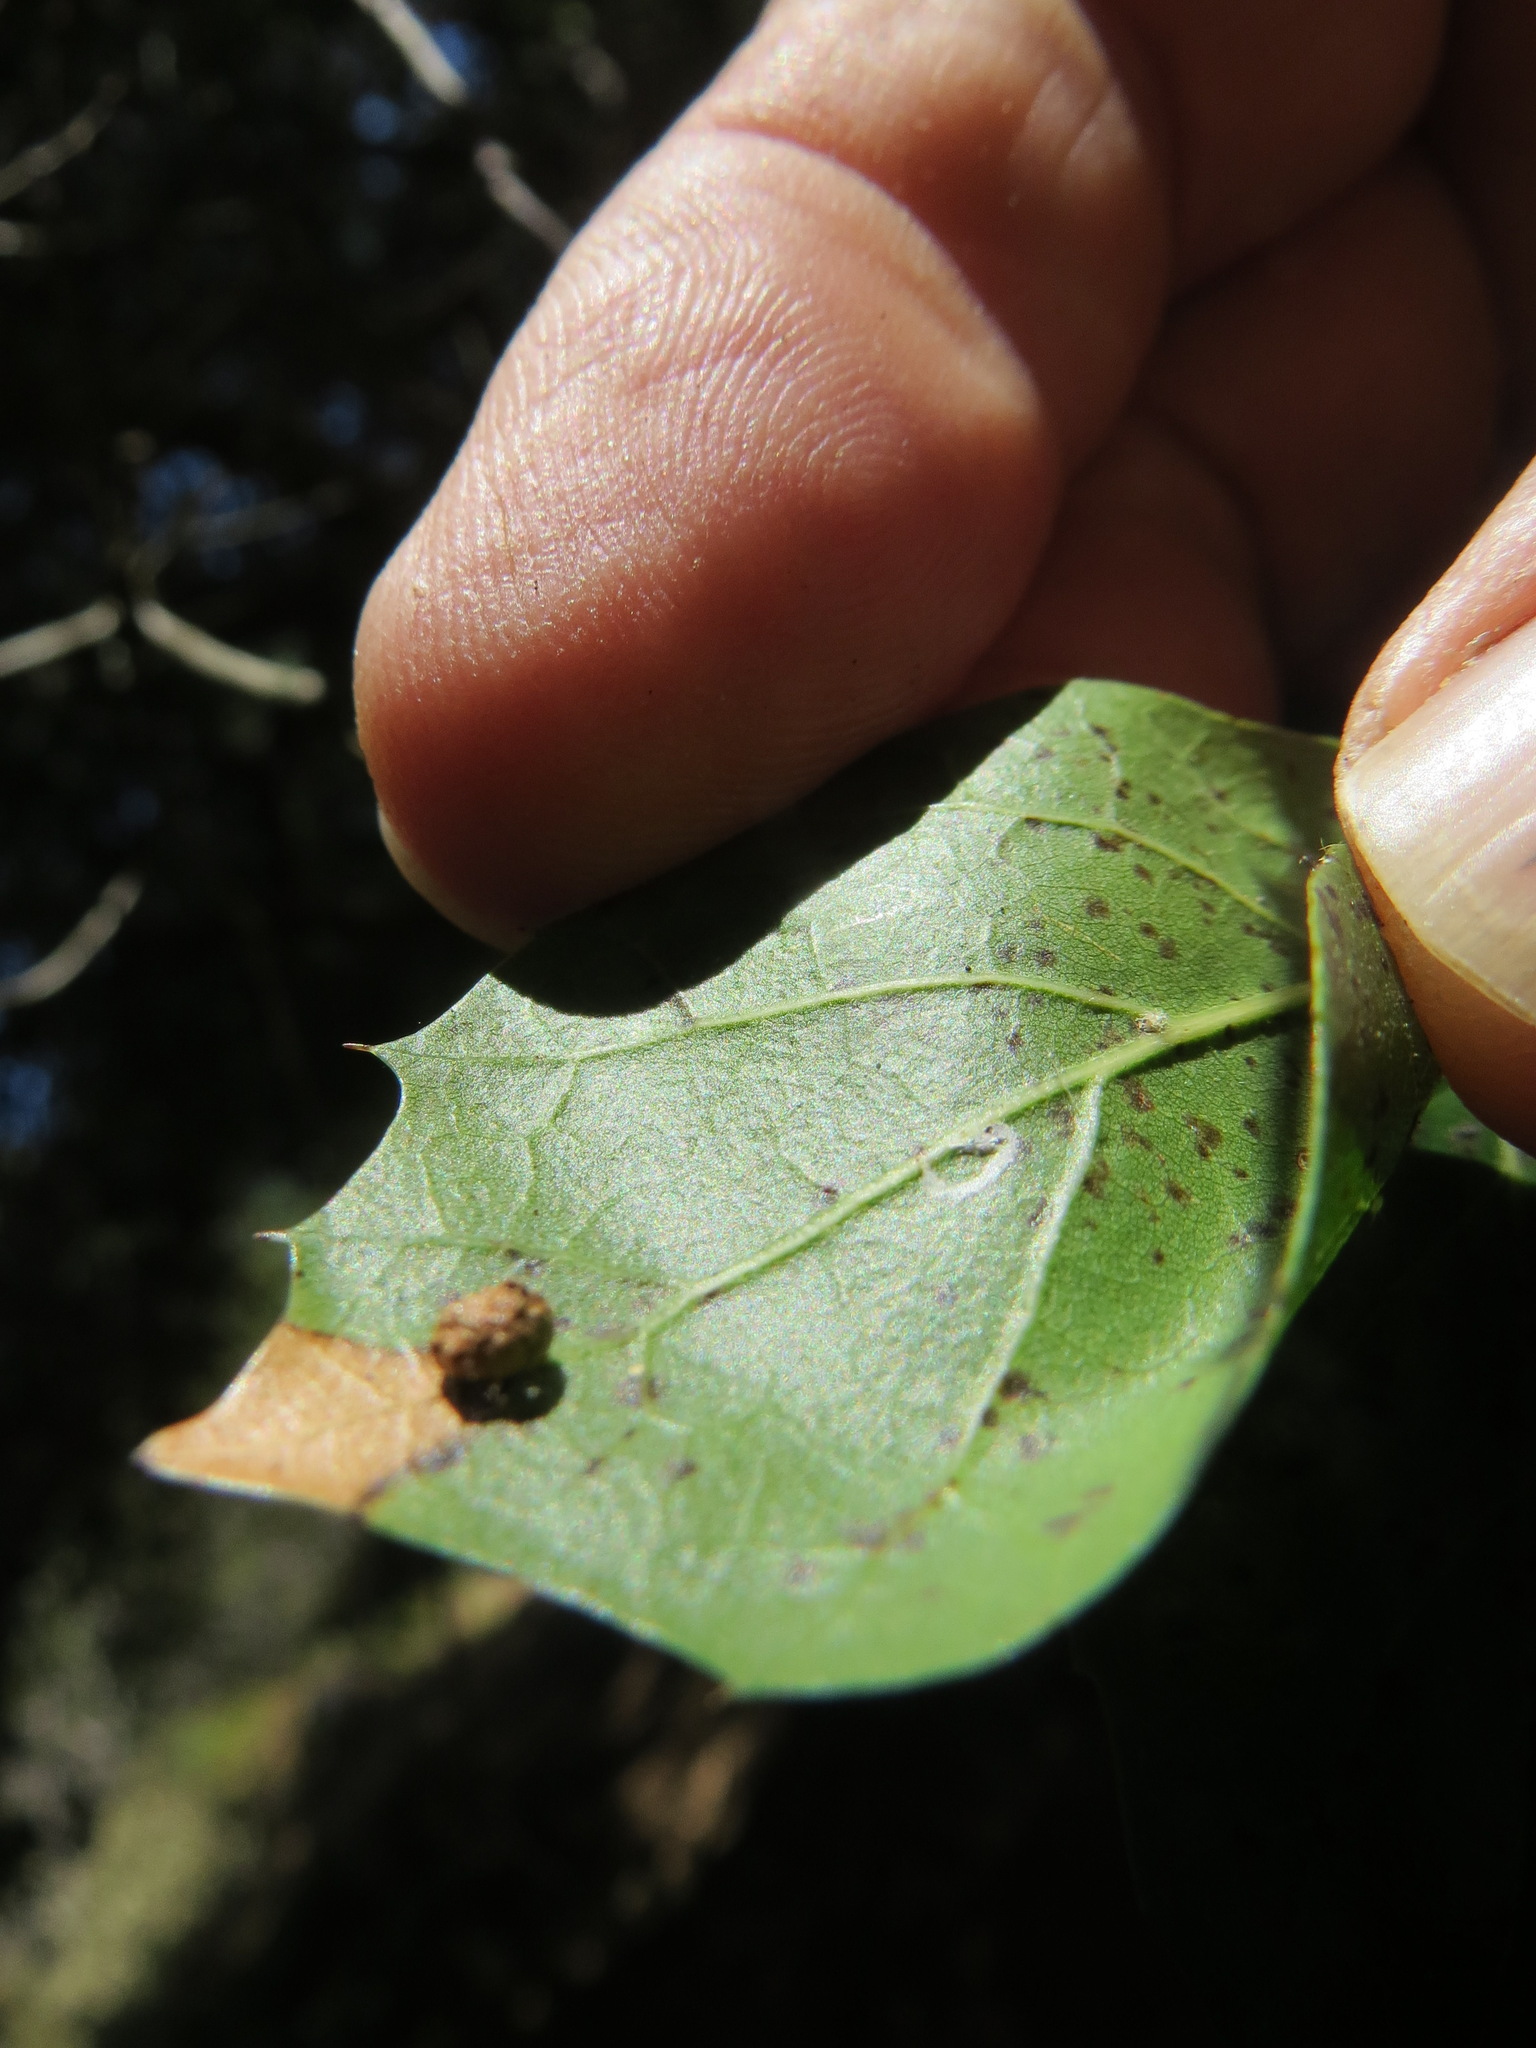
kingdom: Animalia
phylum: Arthropoda
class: Insecta
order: Hymenoptera
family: Cynipidae
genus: Dryocosmus
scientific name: Dryocosmus
